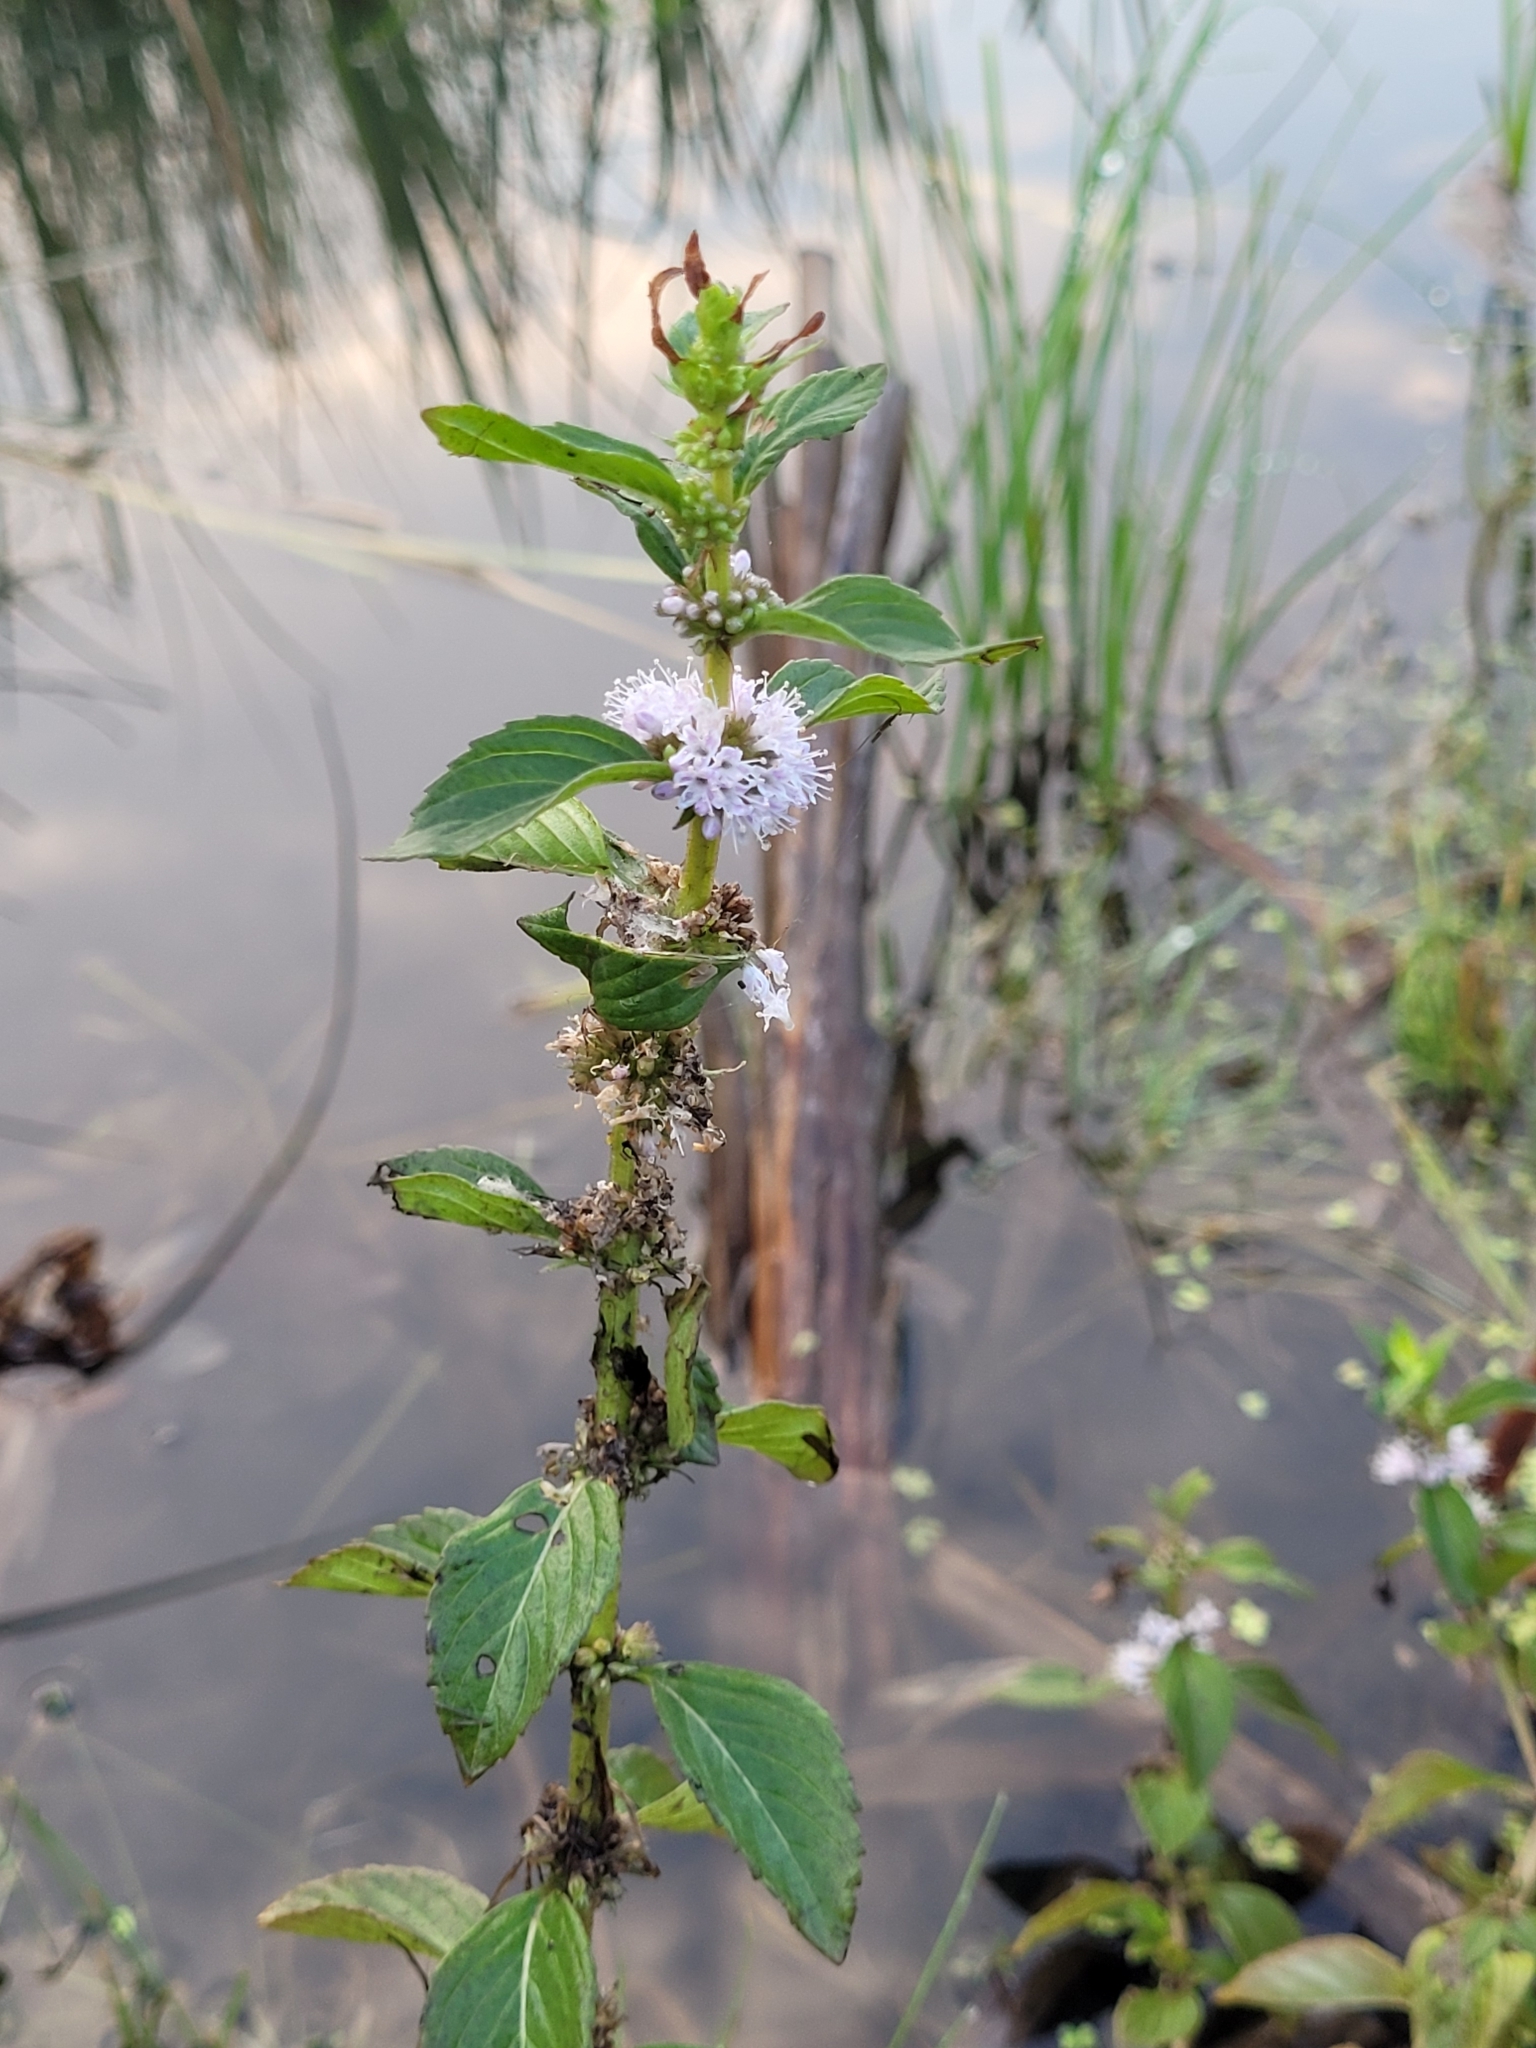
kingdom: Plantae
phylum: Tracheophyta
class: Magnoliopsida
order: Lamiales
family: Lamiaceae
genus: Mentha
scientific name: Mentha canadensis
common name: American corn mint
